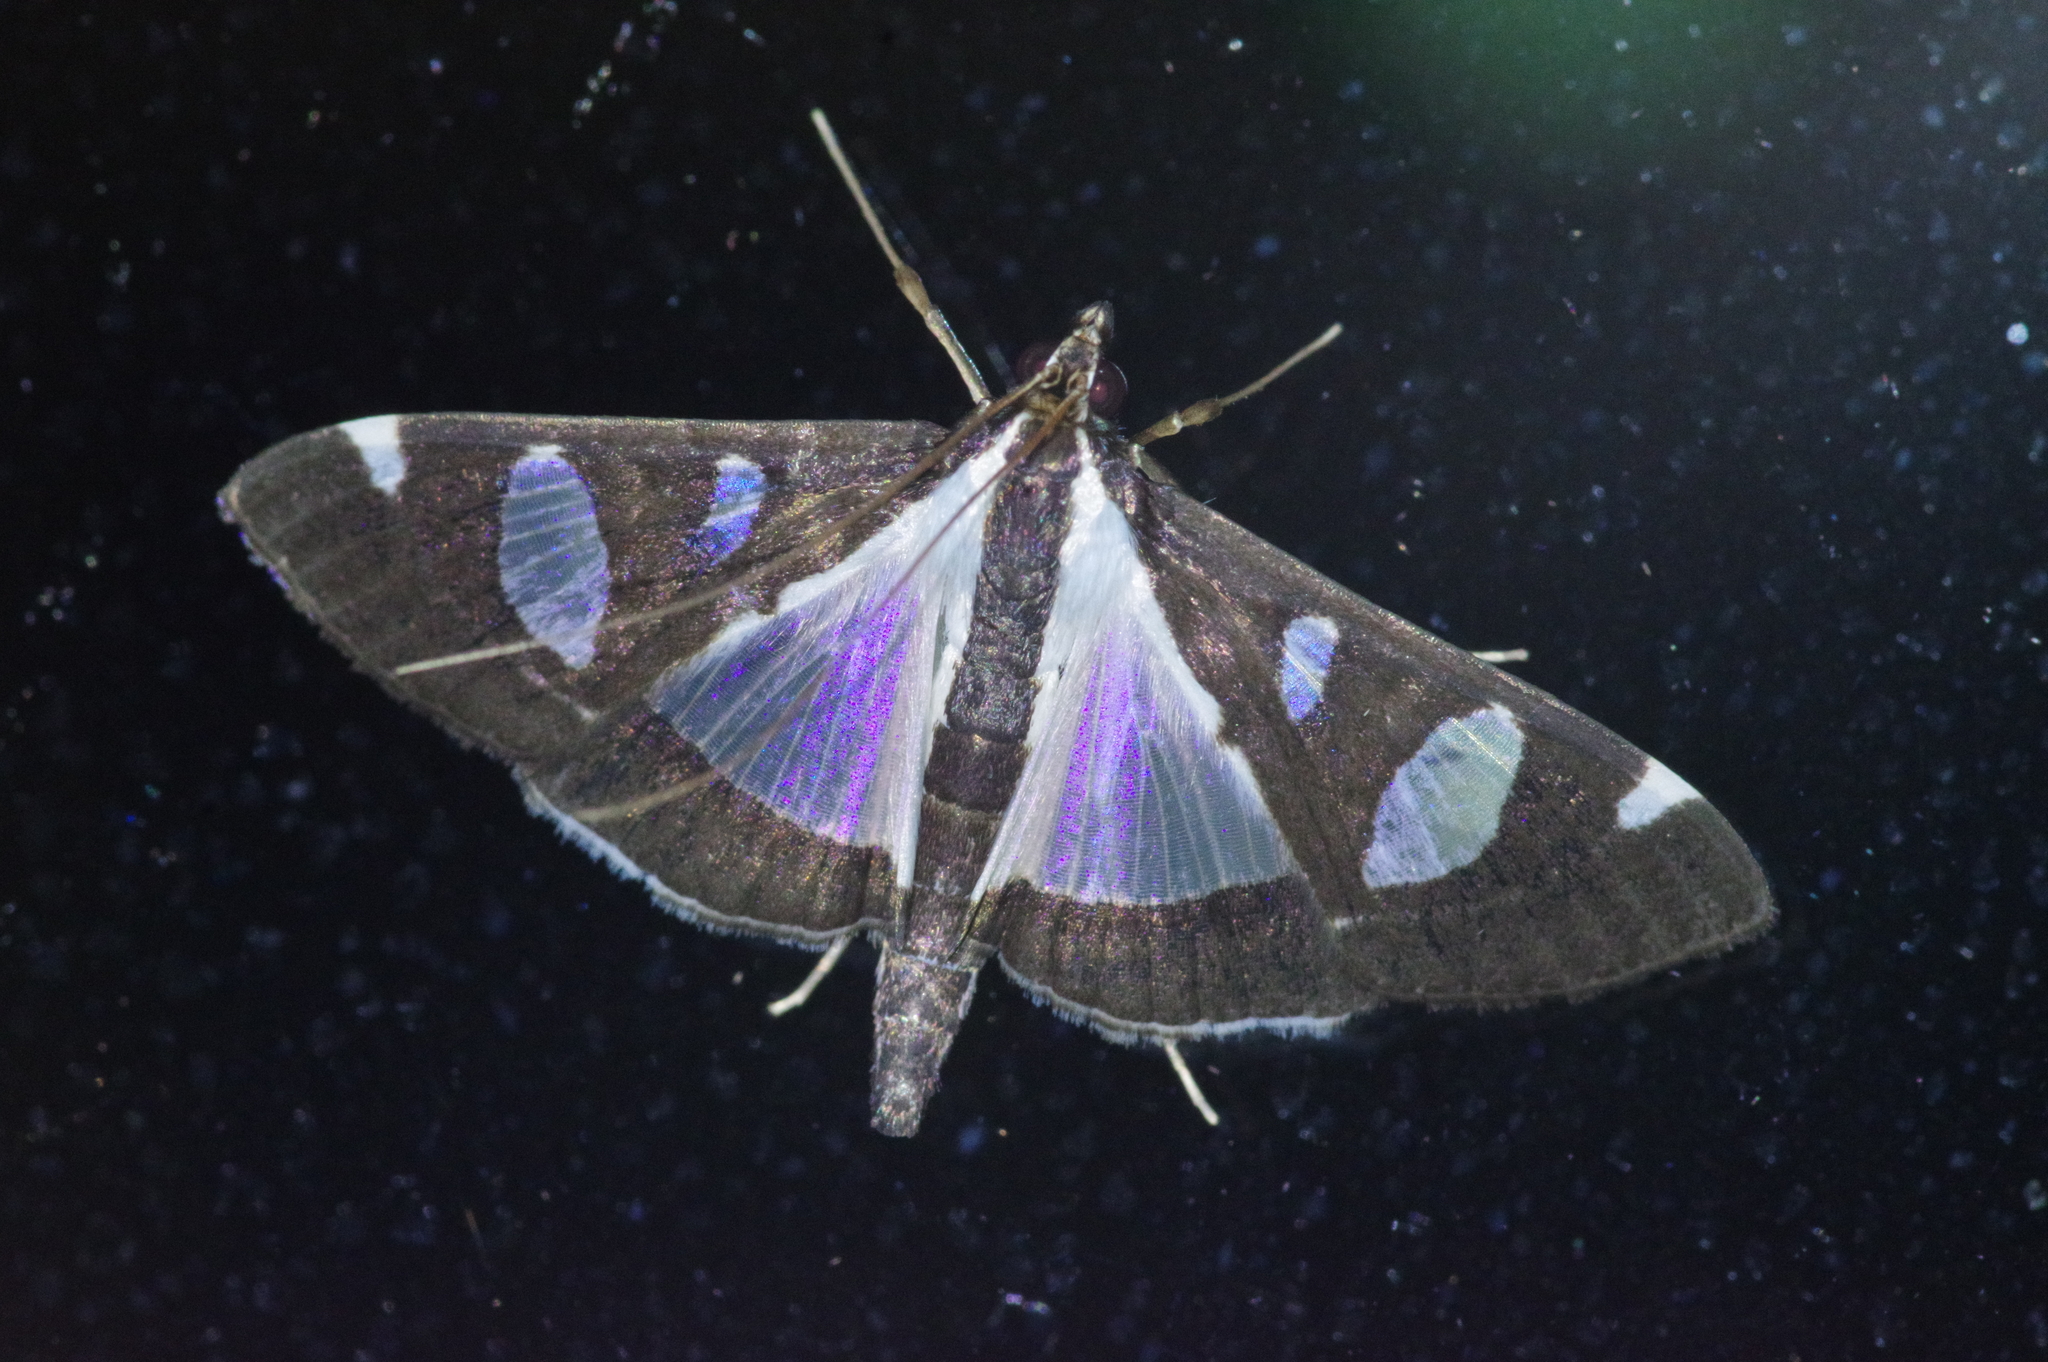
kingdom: Animalia
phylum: Arthropoda
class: Insecta
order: Lepidoptera
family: Crambidae
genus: Glyphodes
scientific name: Glyphodes actorionalis
